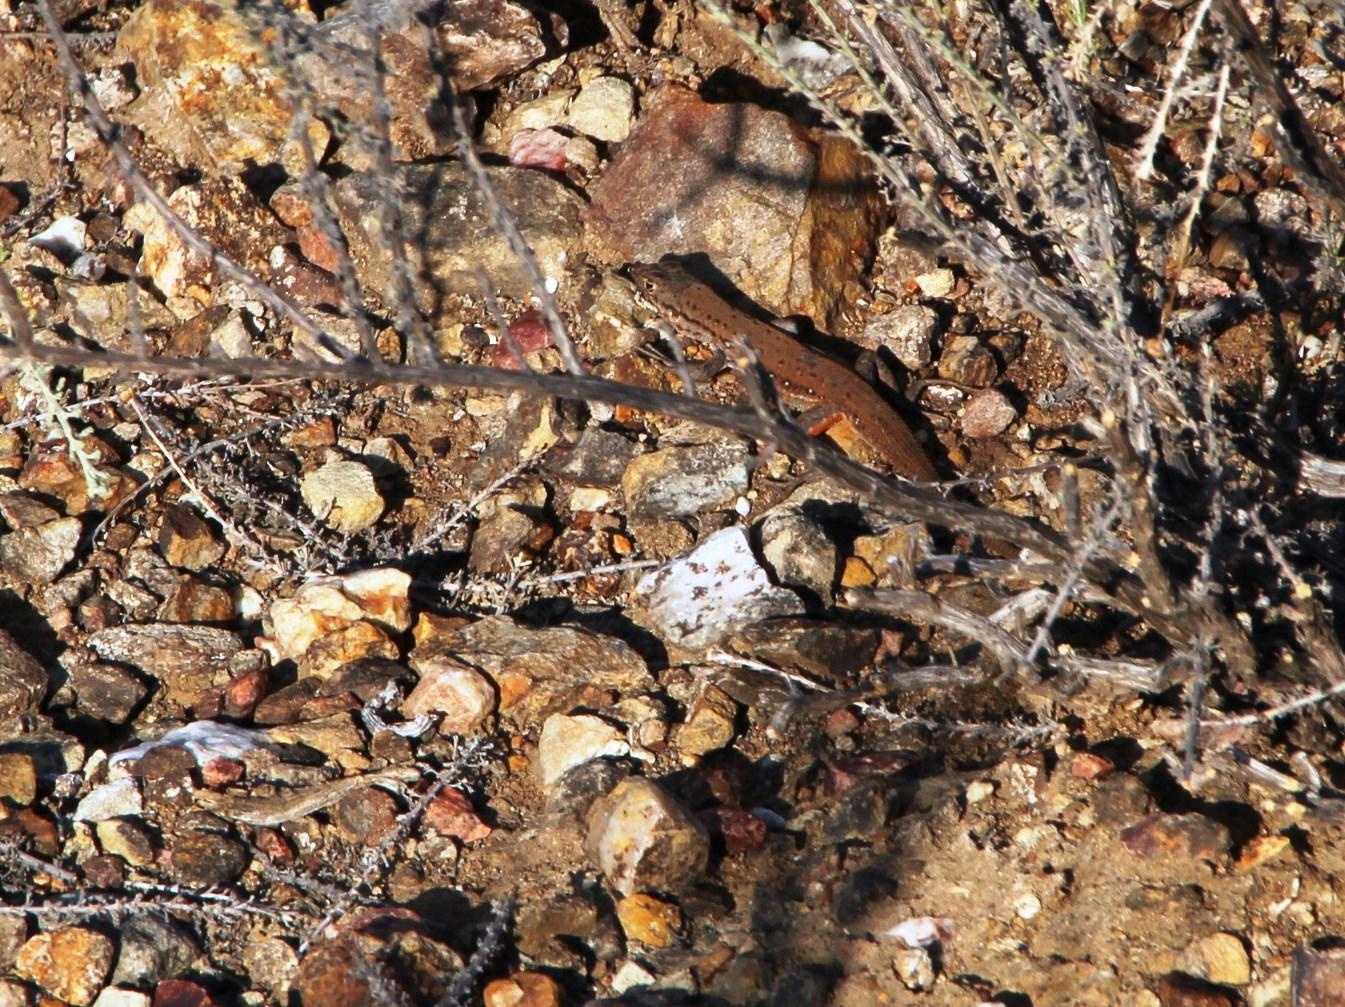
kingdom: Animalia
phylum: Chordata
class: Squamata
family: Lacertidae
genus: Pedioplanis
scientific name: Pedioplanis lineoocellata
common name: Spotted sand lizard
